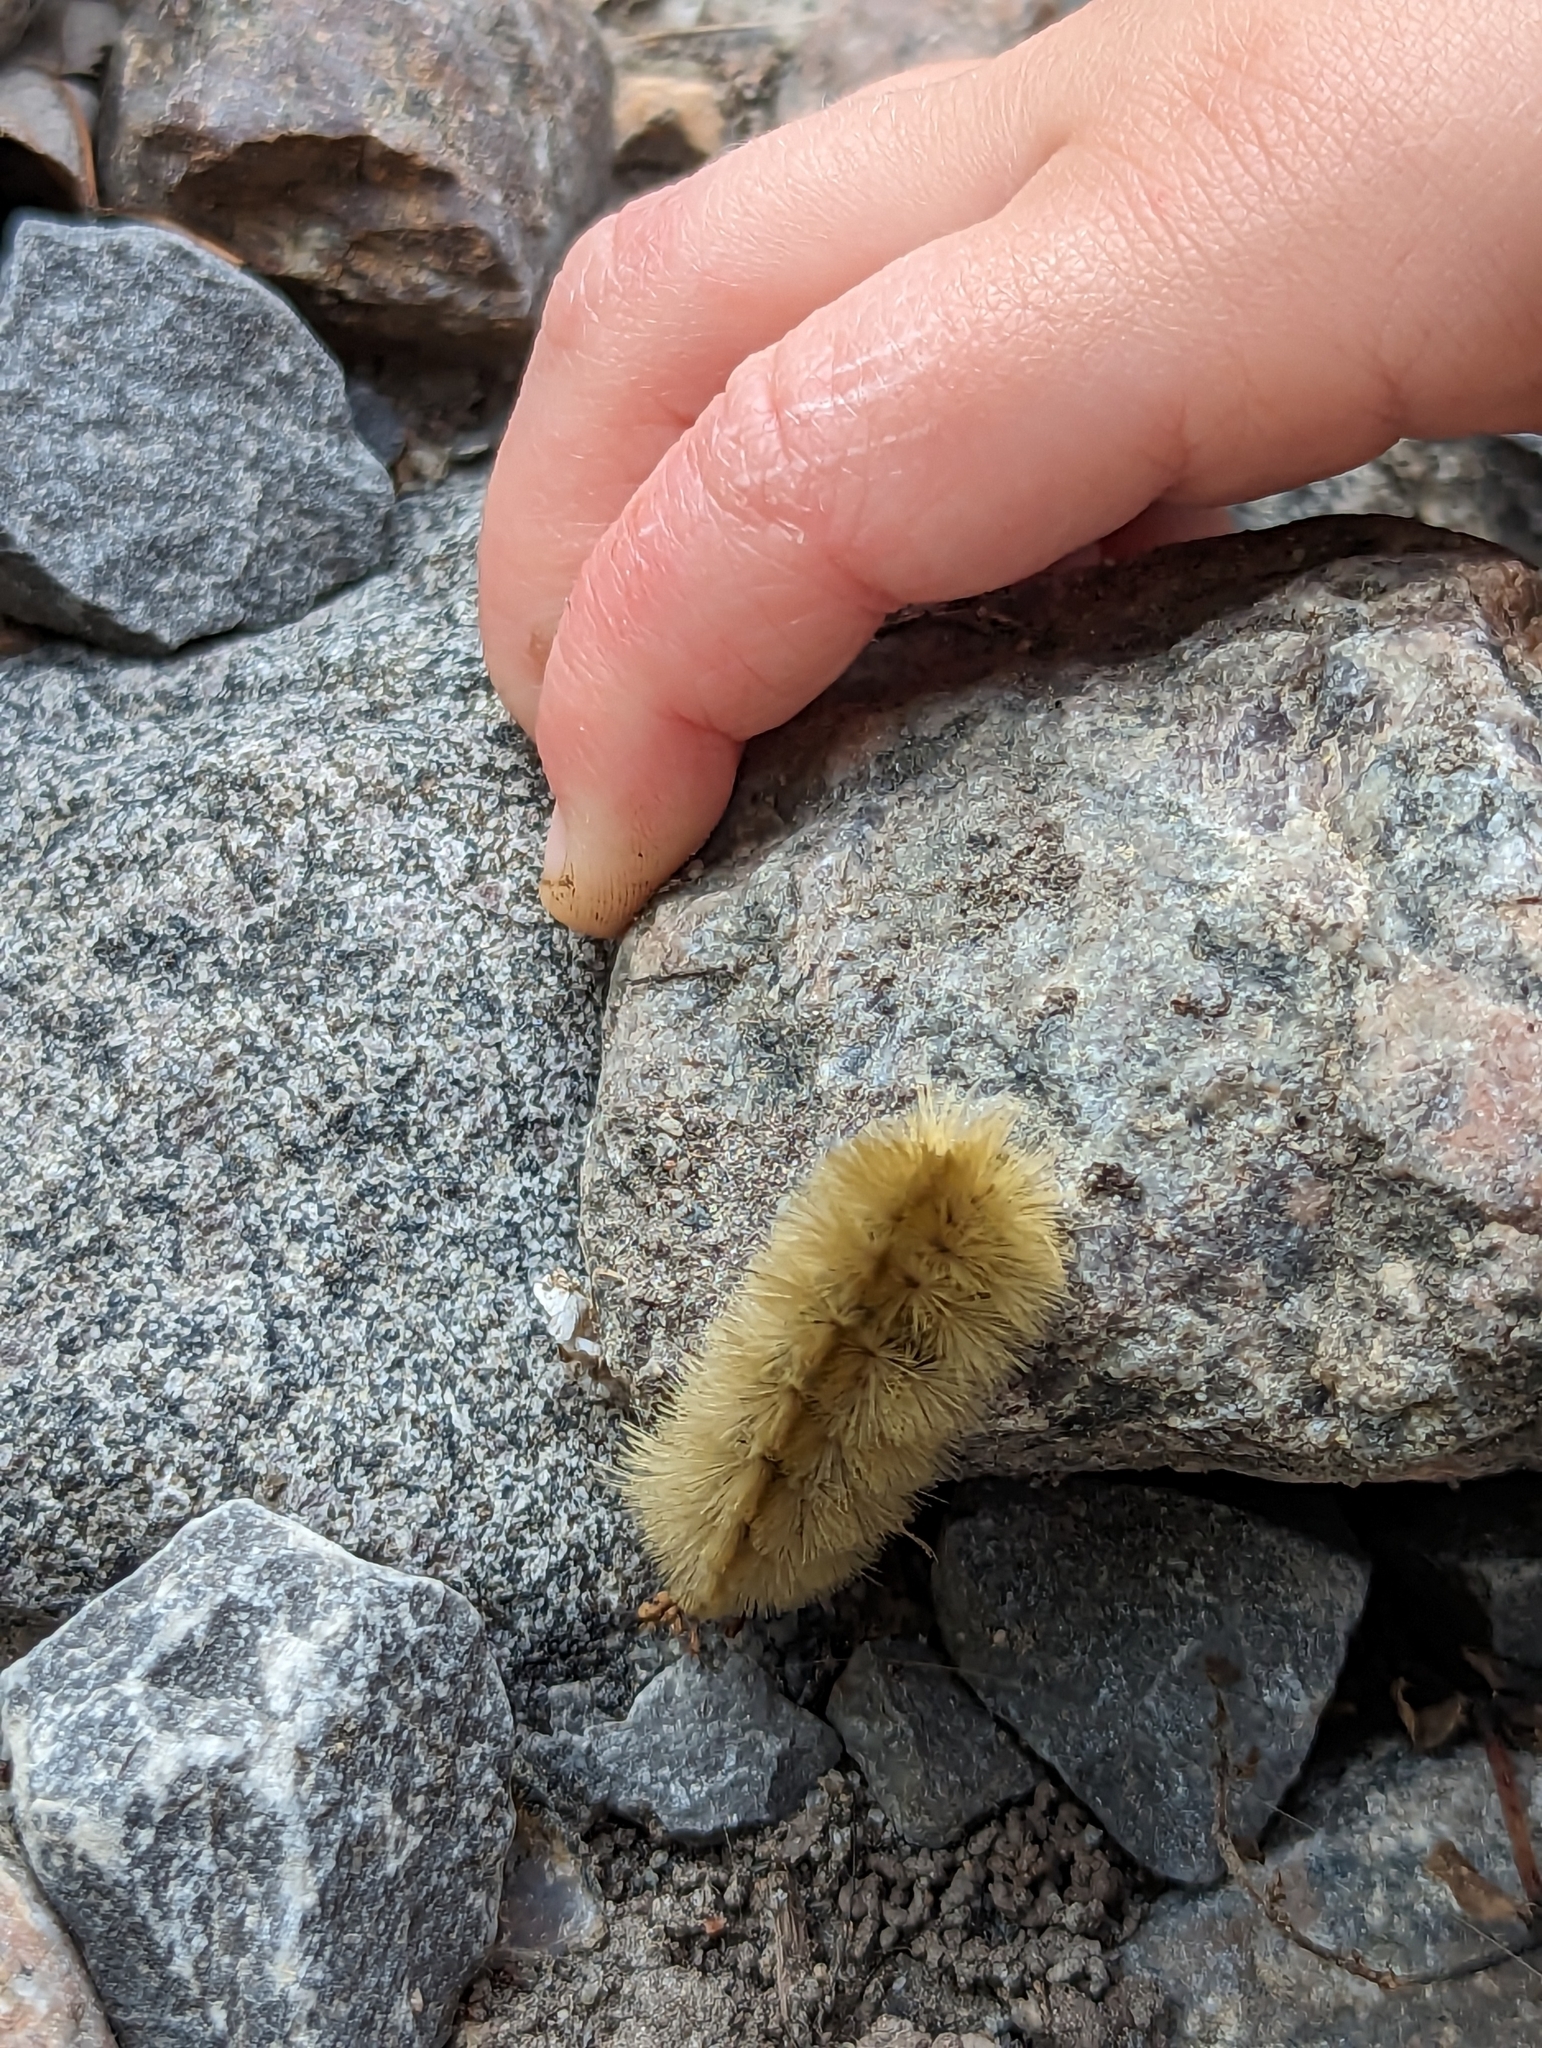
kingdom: Animalia
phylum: Arthropoda
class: Insecta
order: Lepidoptera
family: Erebidae
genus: Halysidota
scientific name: Halysidota tessellaris
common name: Banded tussock moth
